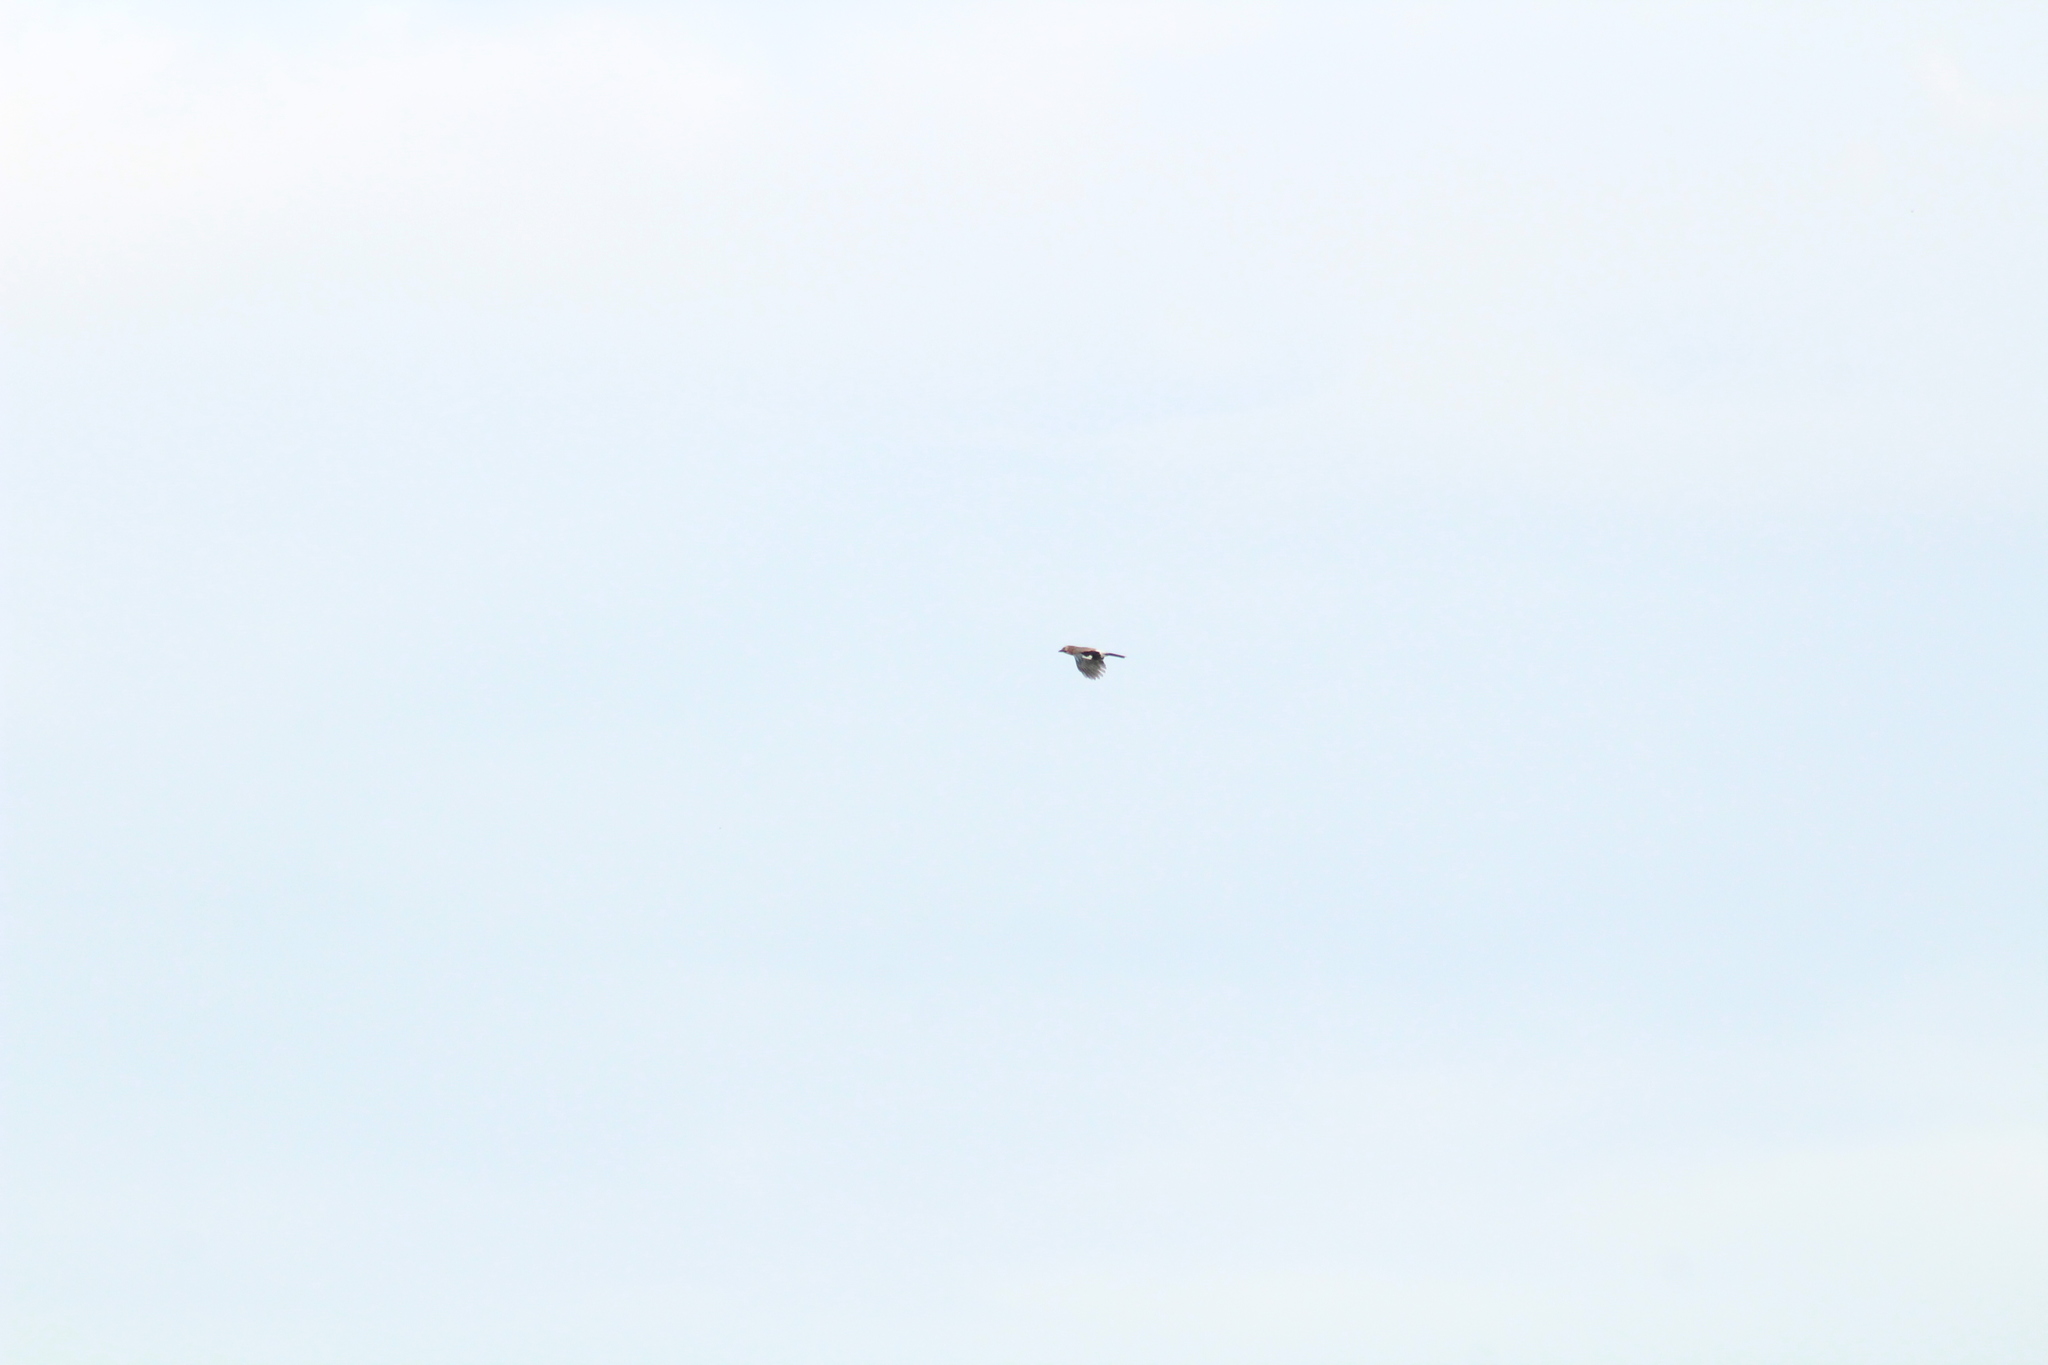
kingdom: Animalia
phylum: Chordata
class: Aves
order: Passeriformes
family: Corvidae
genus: Garrulus
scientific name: Garrulus glandarius
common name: Eurasian jay
